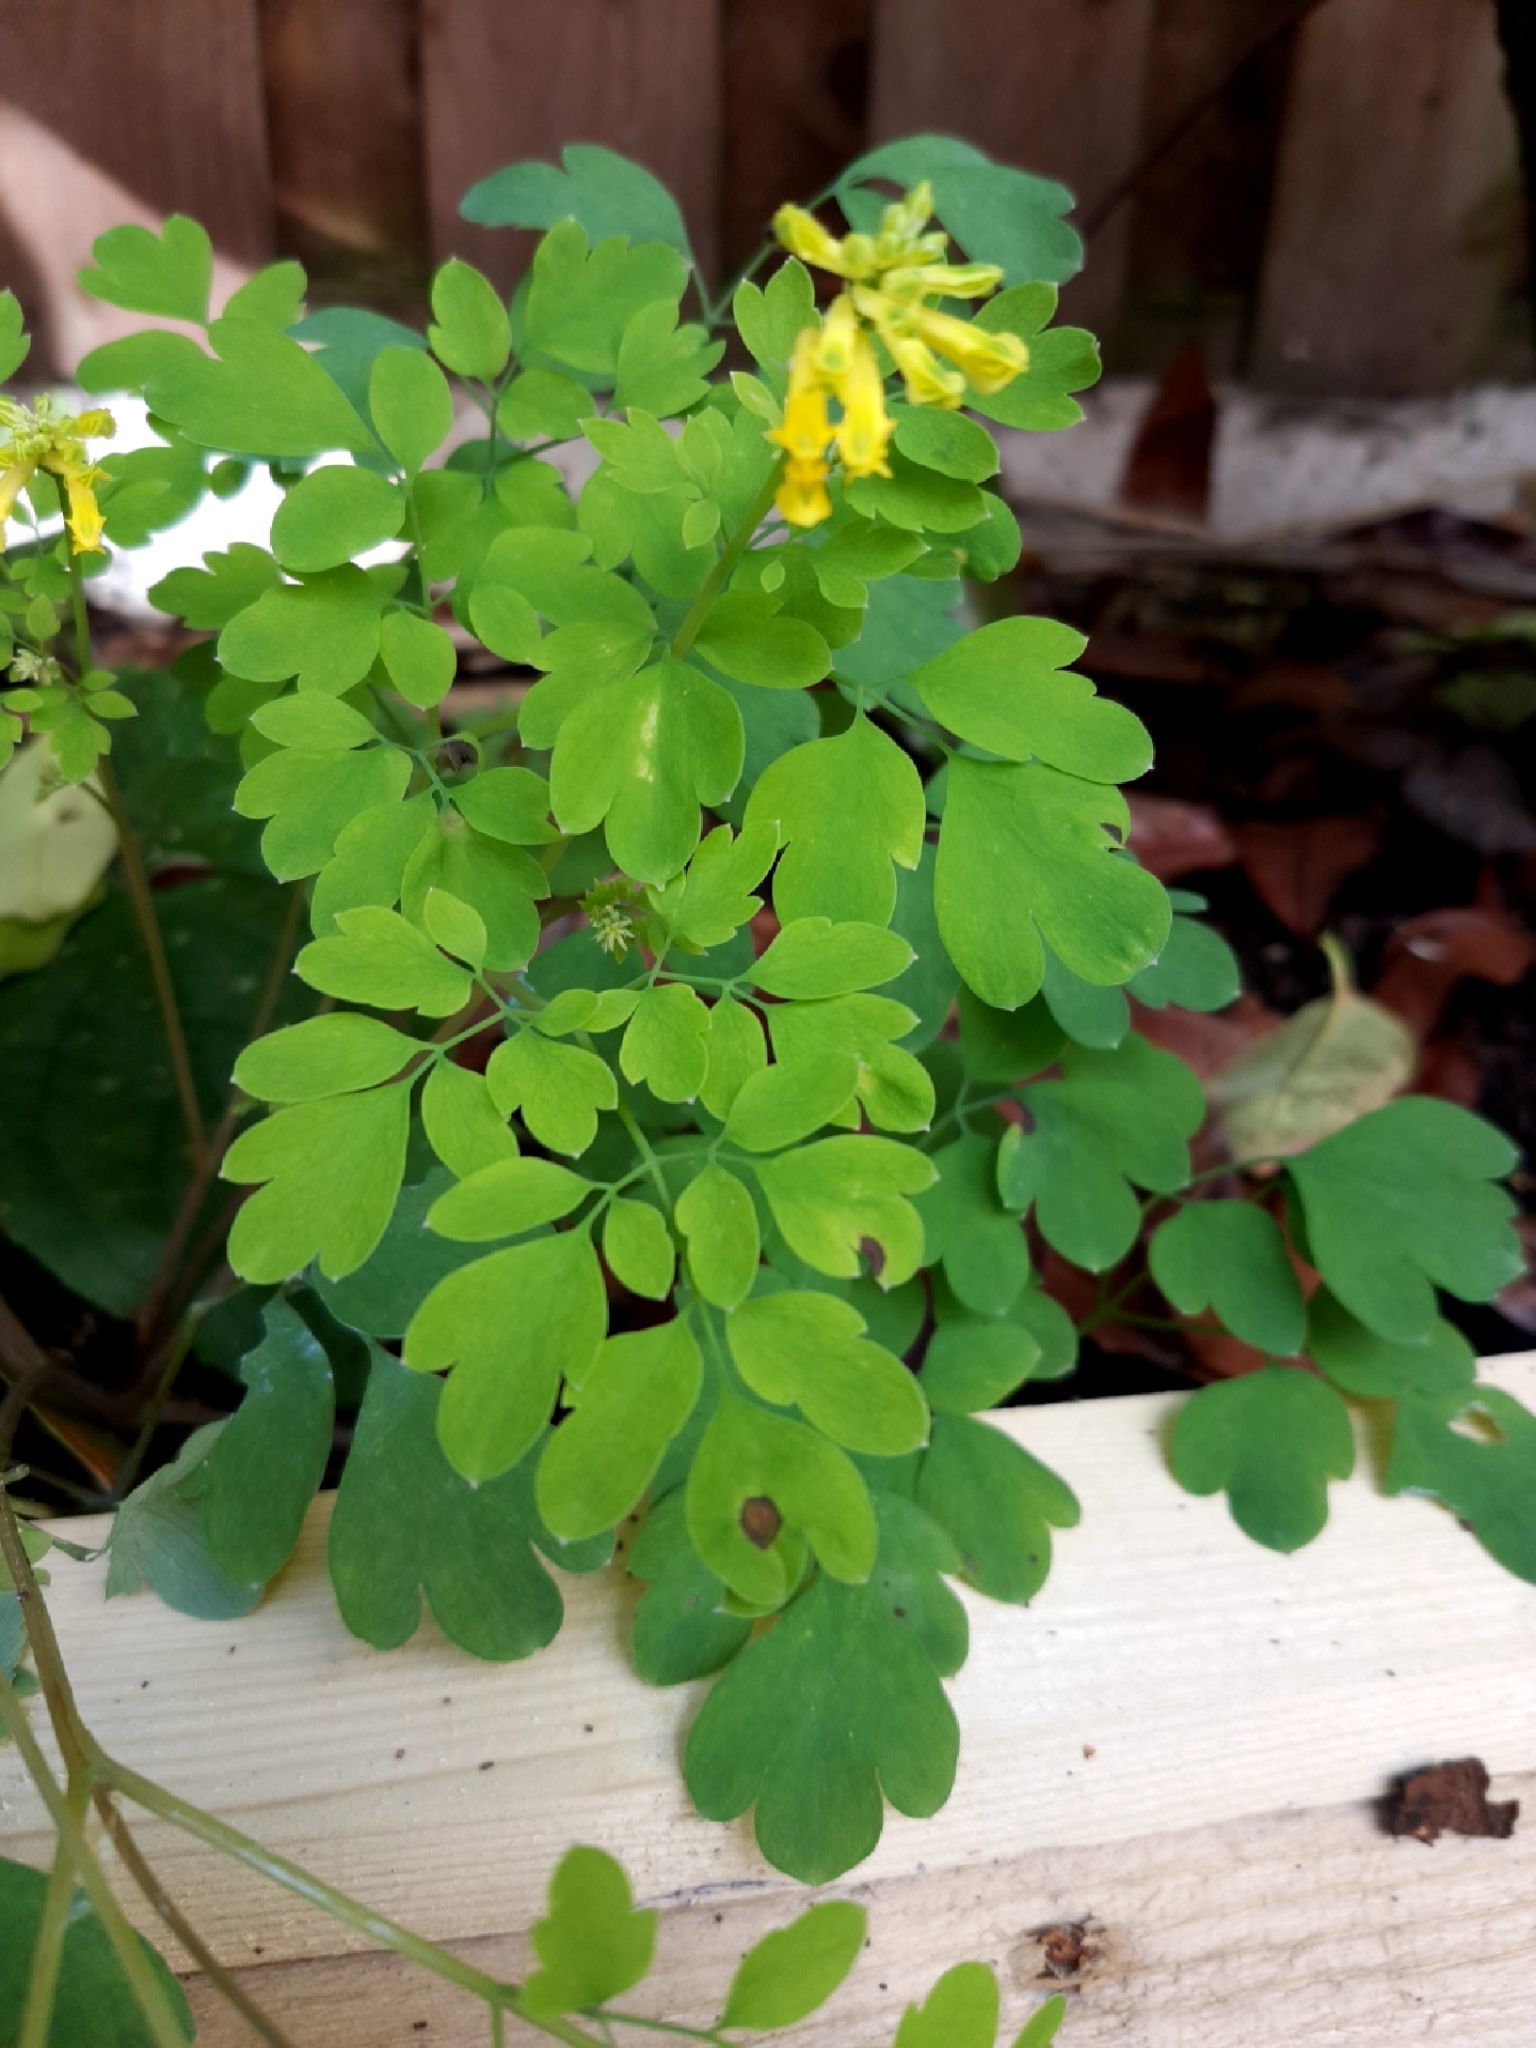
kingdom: Plantae
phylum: Tracheophyta
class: Magnoliopsida
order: Ranunculales
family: Papaveraceae
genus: Pseudofumaria
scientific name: Pseudofumaria lutea
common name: Yellow corydalis
